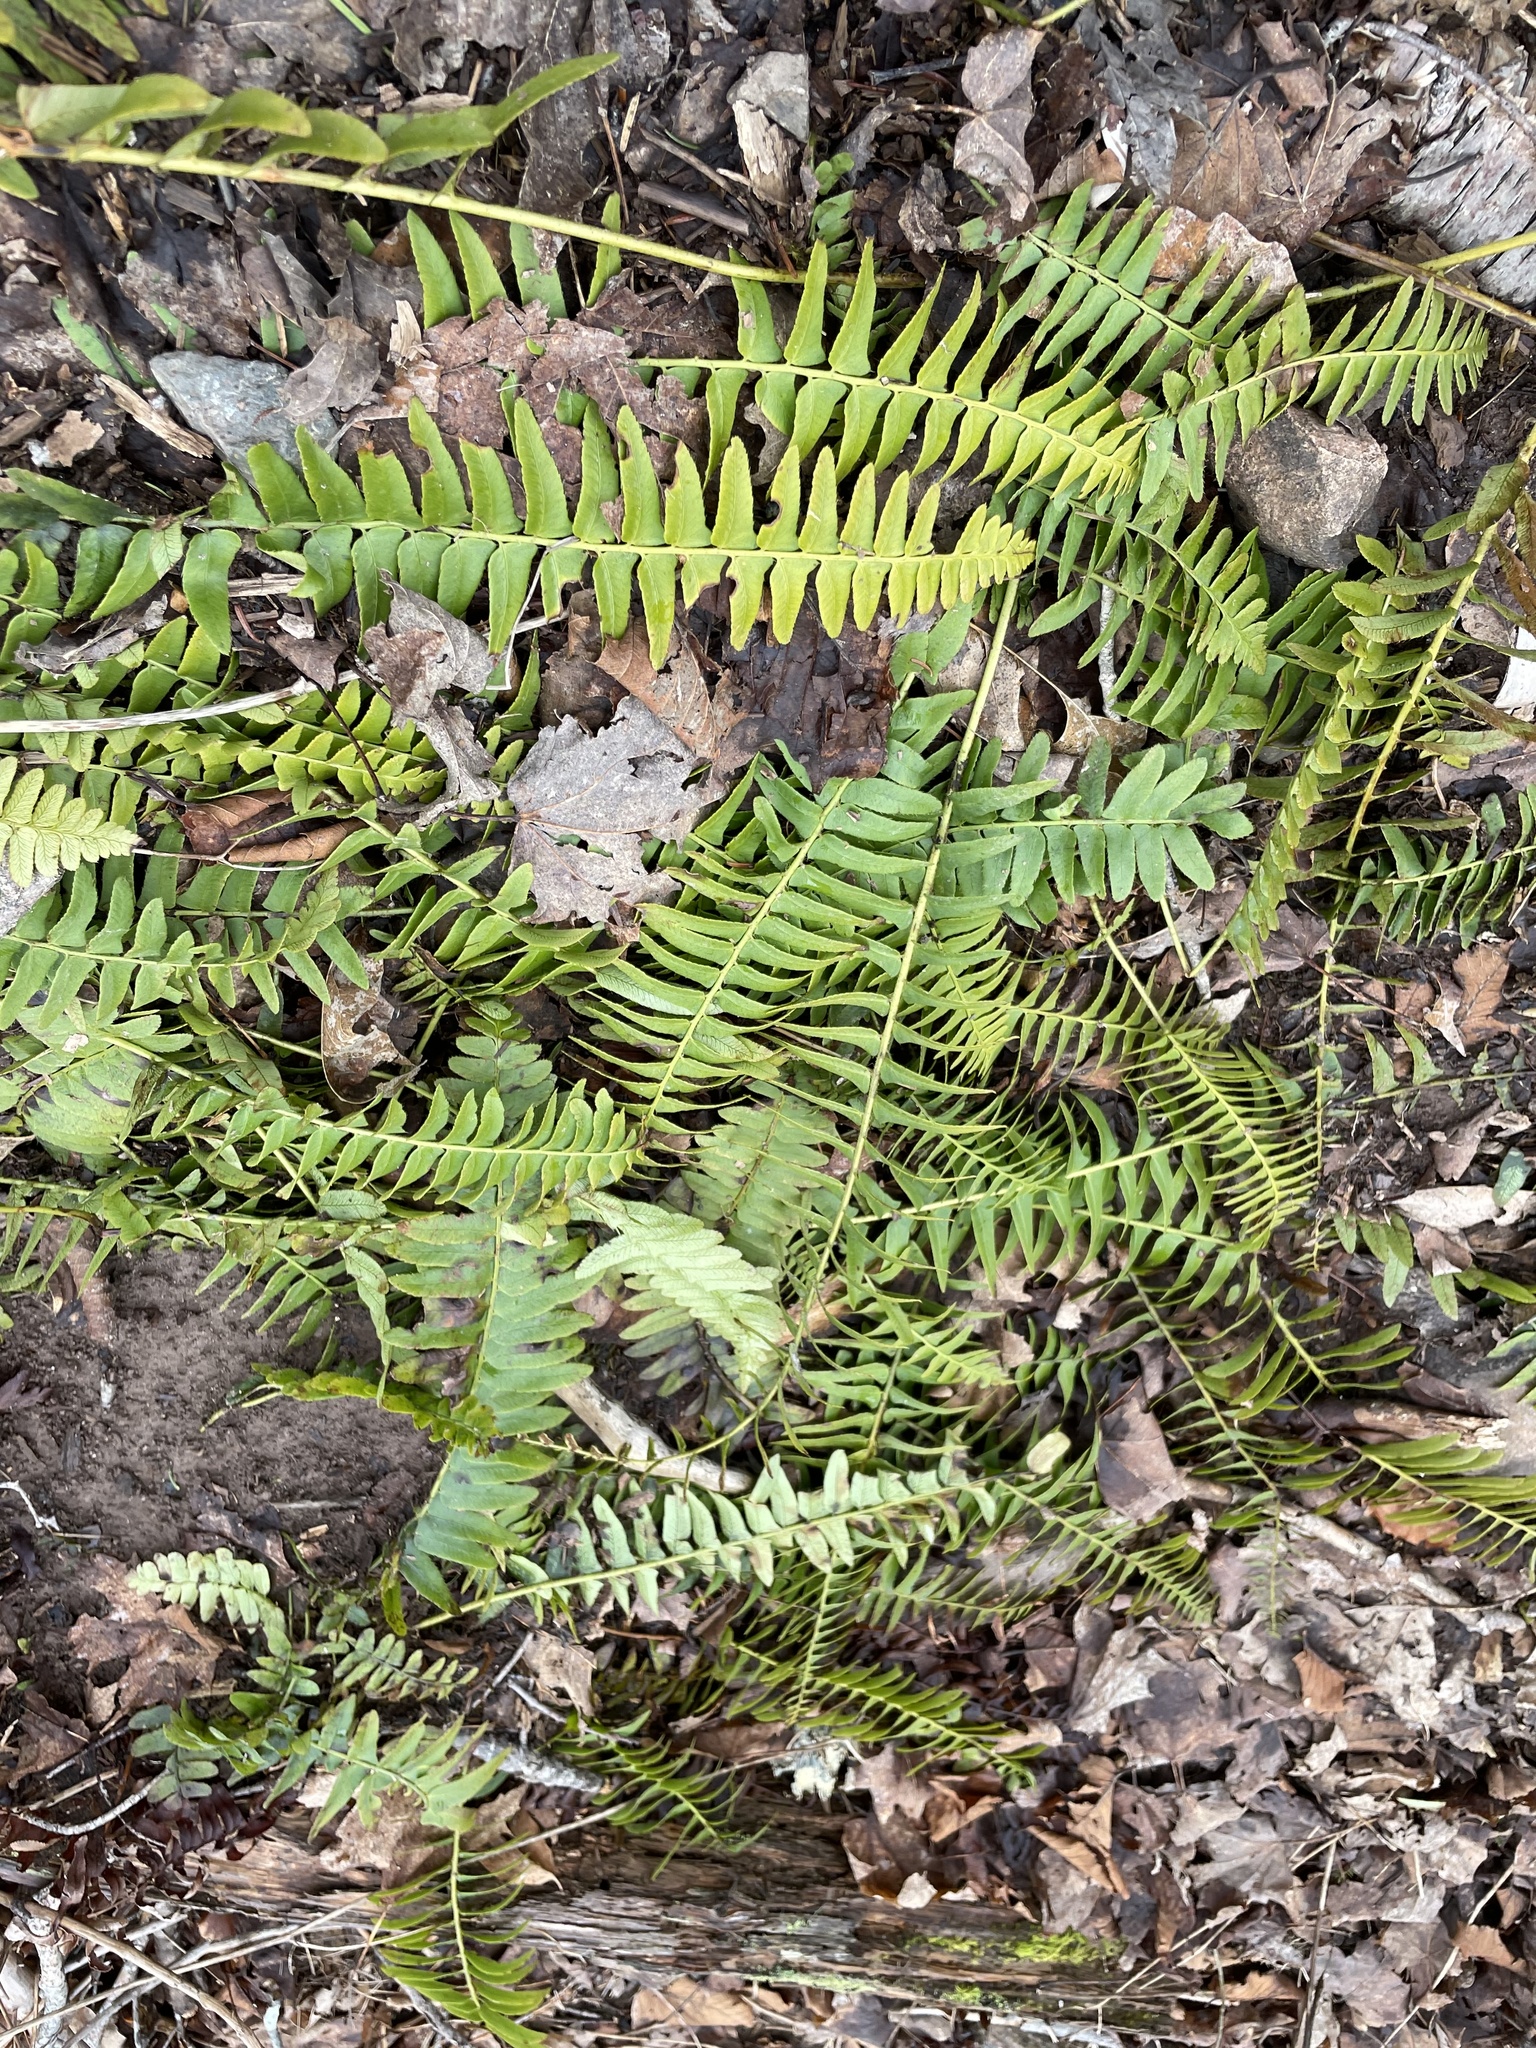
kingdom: Plantae
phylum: Tracheophyta
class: Polypodiopsida
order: Polypodiales
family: Dryopteridaceae
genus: Polystichum
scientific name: Polystichum acrostichoides
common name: Christmas fern
